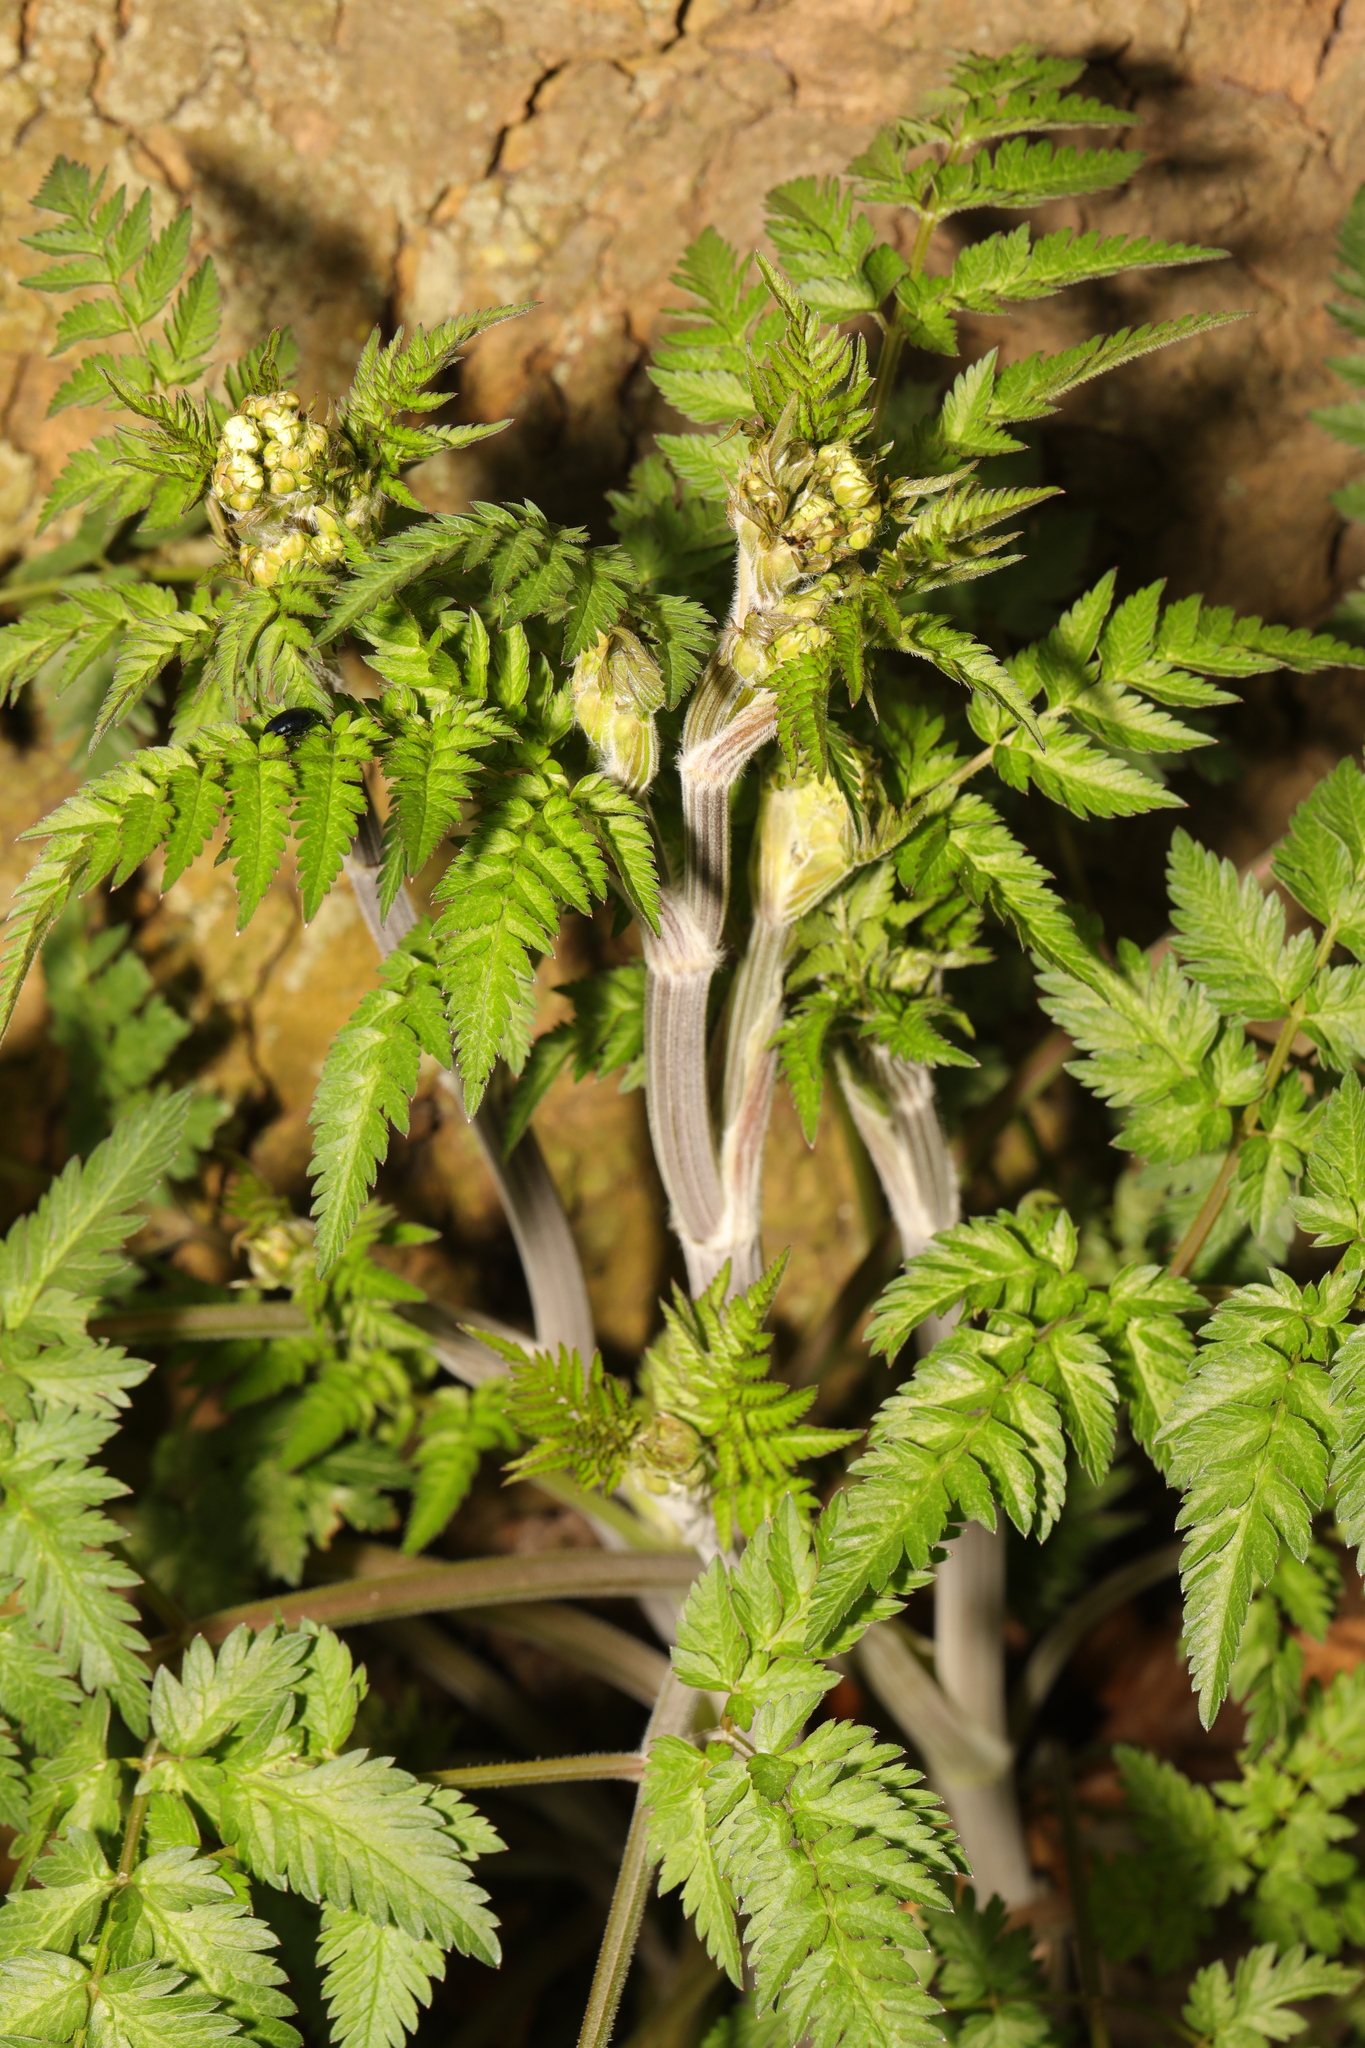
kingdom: Plantae
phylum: Tracheophyta
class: Magnoliopsida
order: Apiales
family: Apiaceae
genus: Anthriscus
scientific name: Anthriscus sylvestris
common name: Cow parsley
